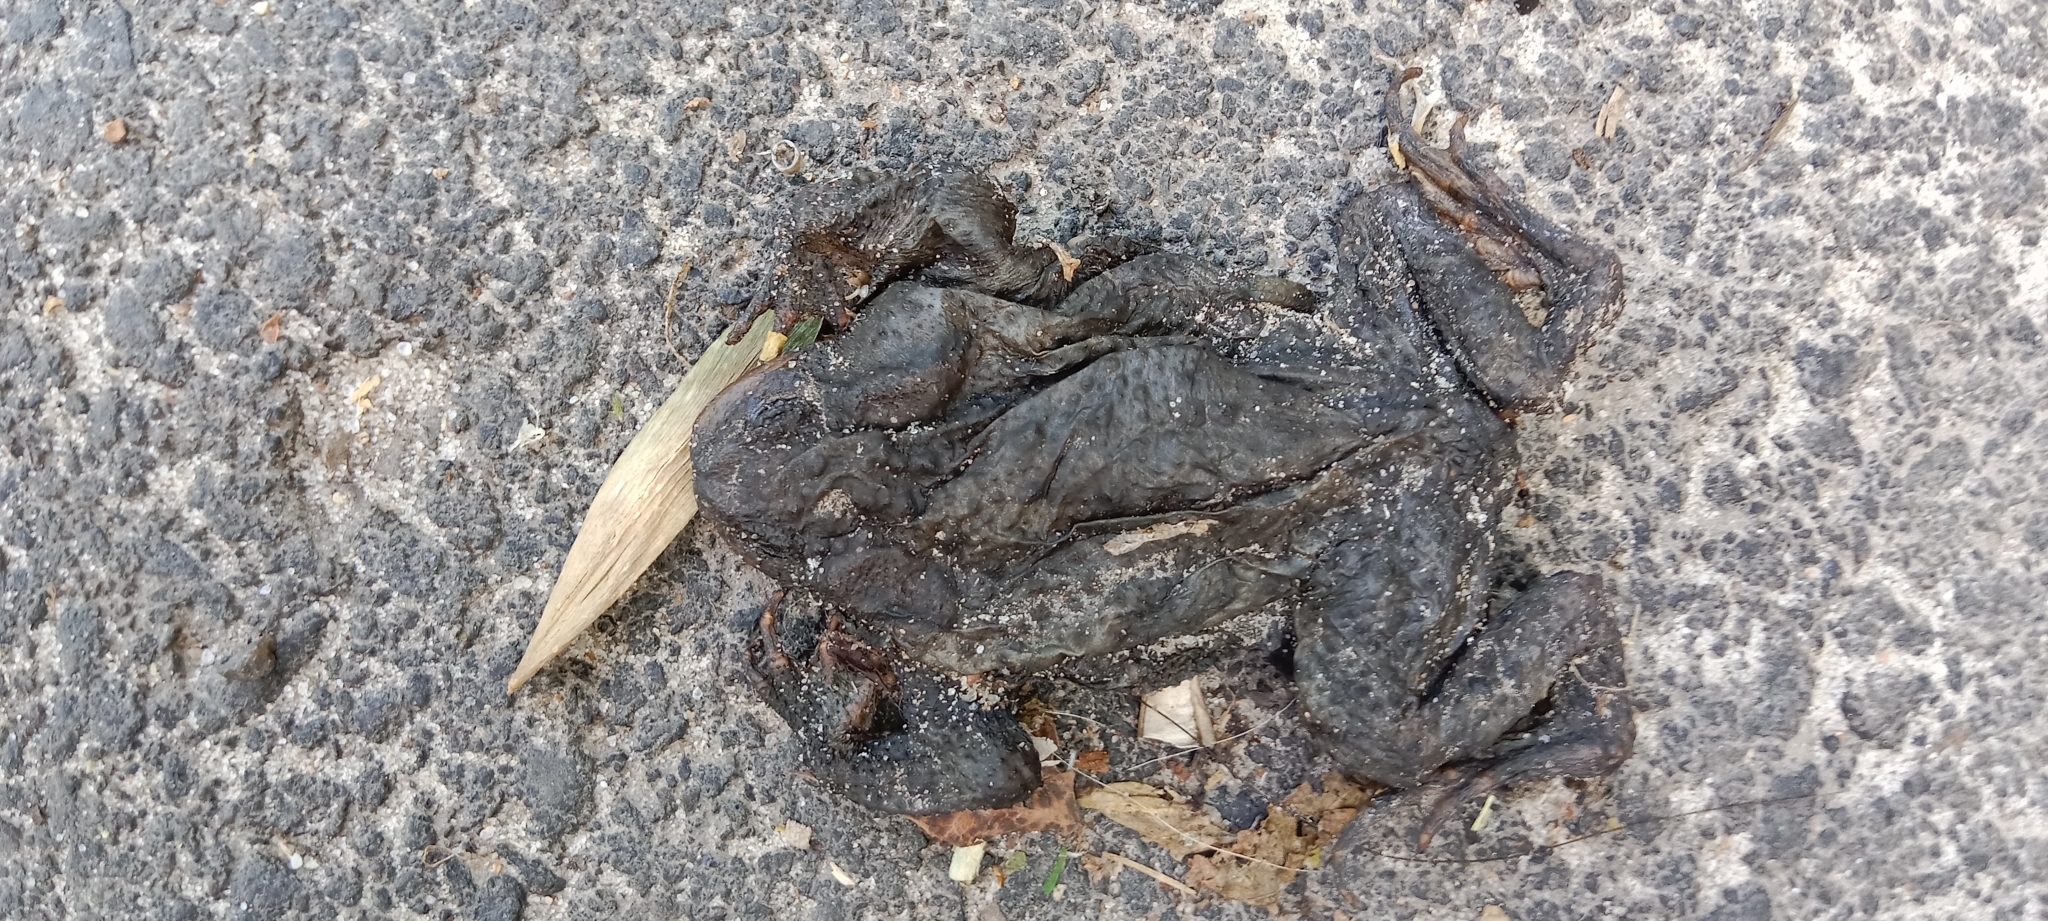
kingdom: Animalia
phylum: Chordata
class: Amphibia
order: Anura
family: Bufonidae
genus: Bufo
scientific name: Bufo bufo
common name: Common toad
